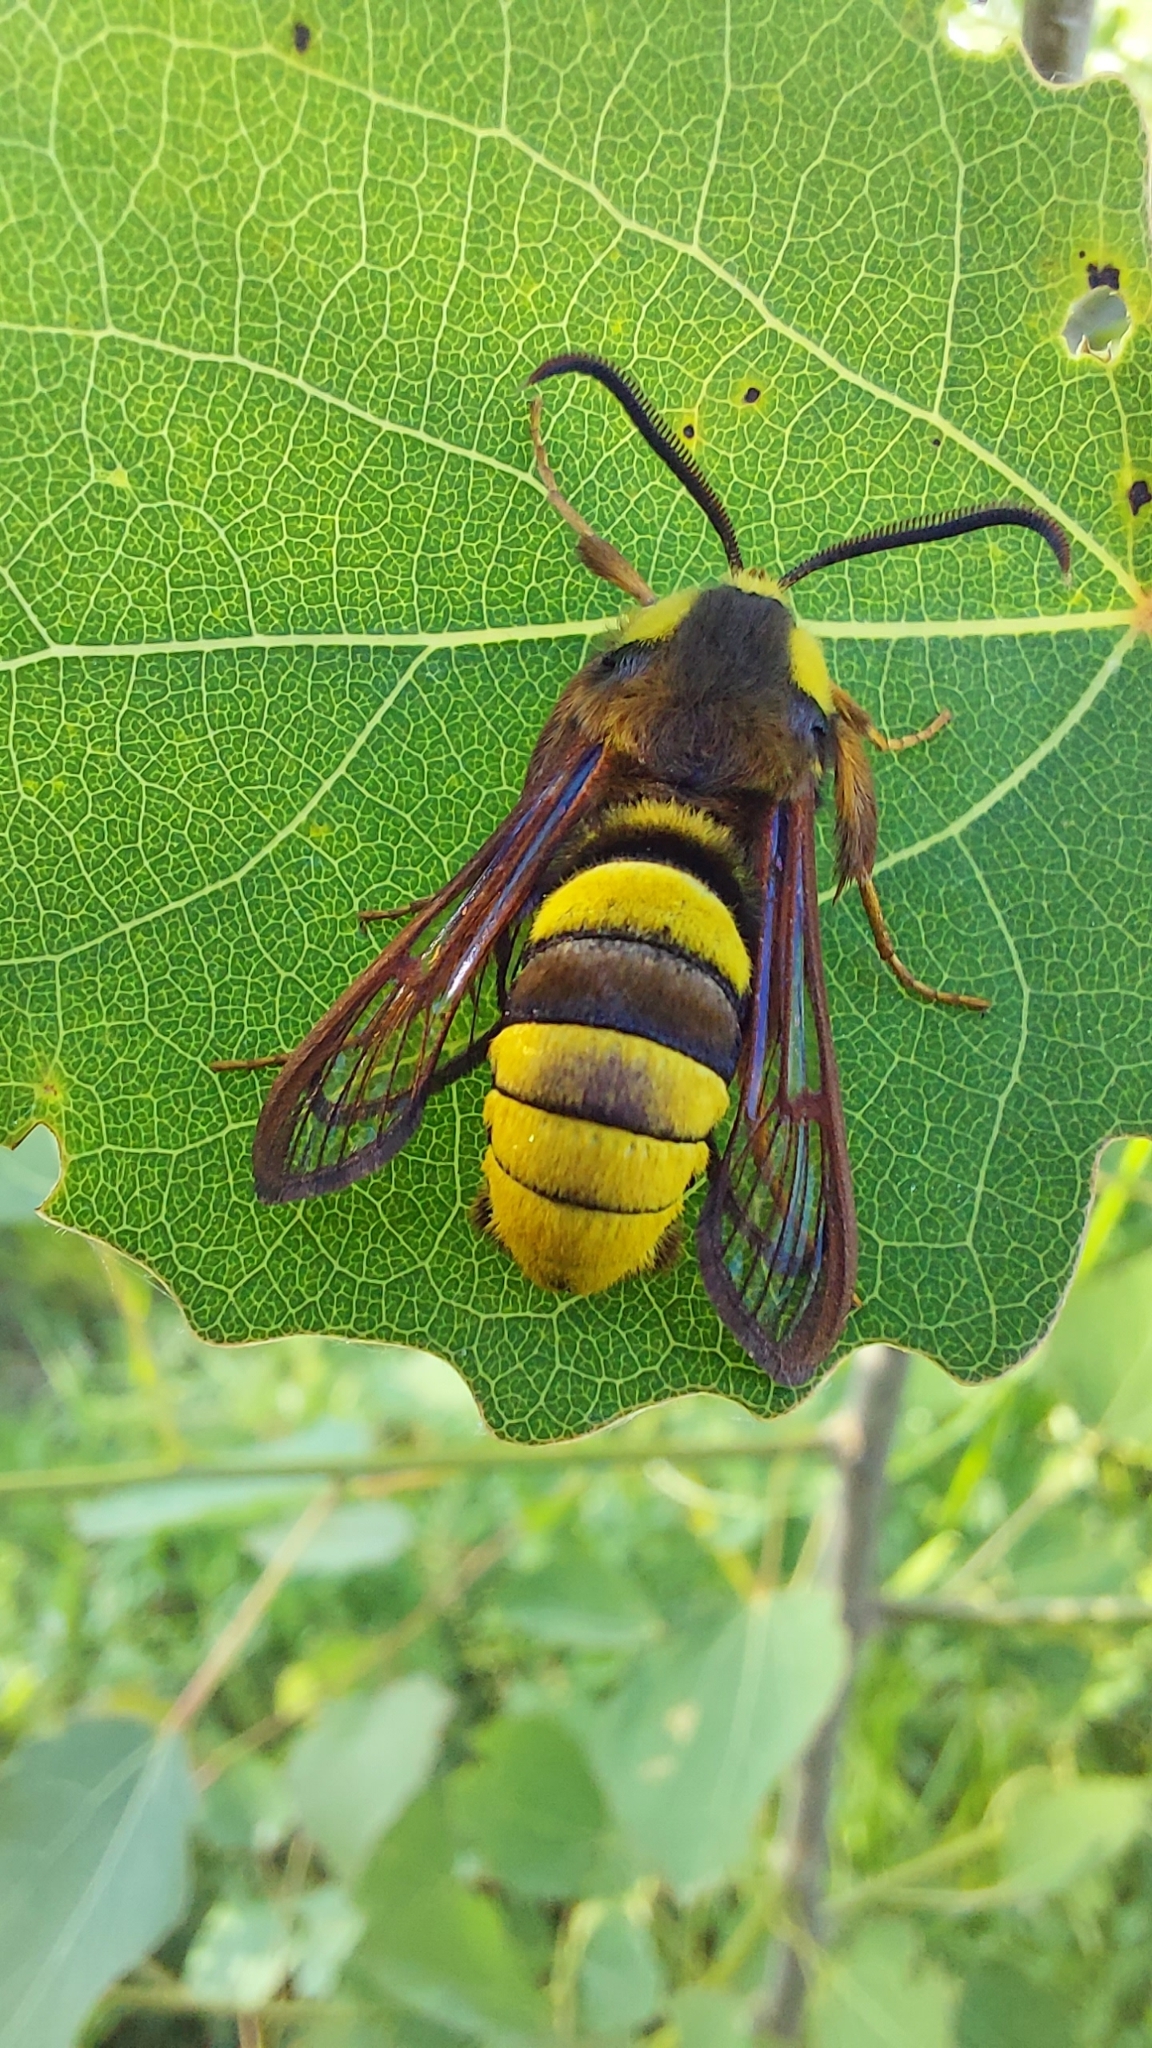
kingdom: Animalia
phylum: Arthropoda
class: Insecta
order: Lepidoptera
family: Sesiidae
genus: Sesia
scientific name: Sesia apiformis
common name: Hornet moth
